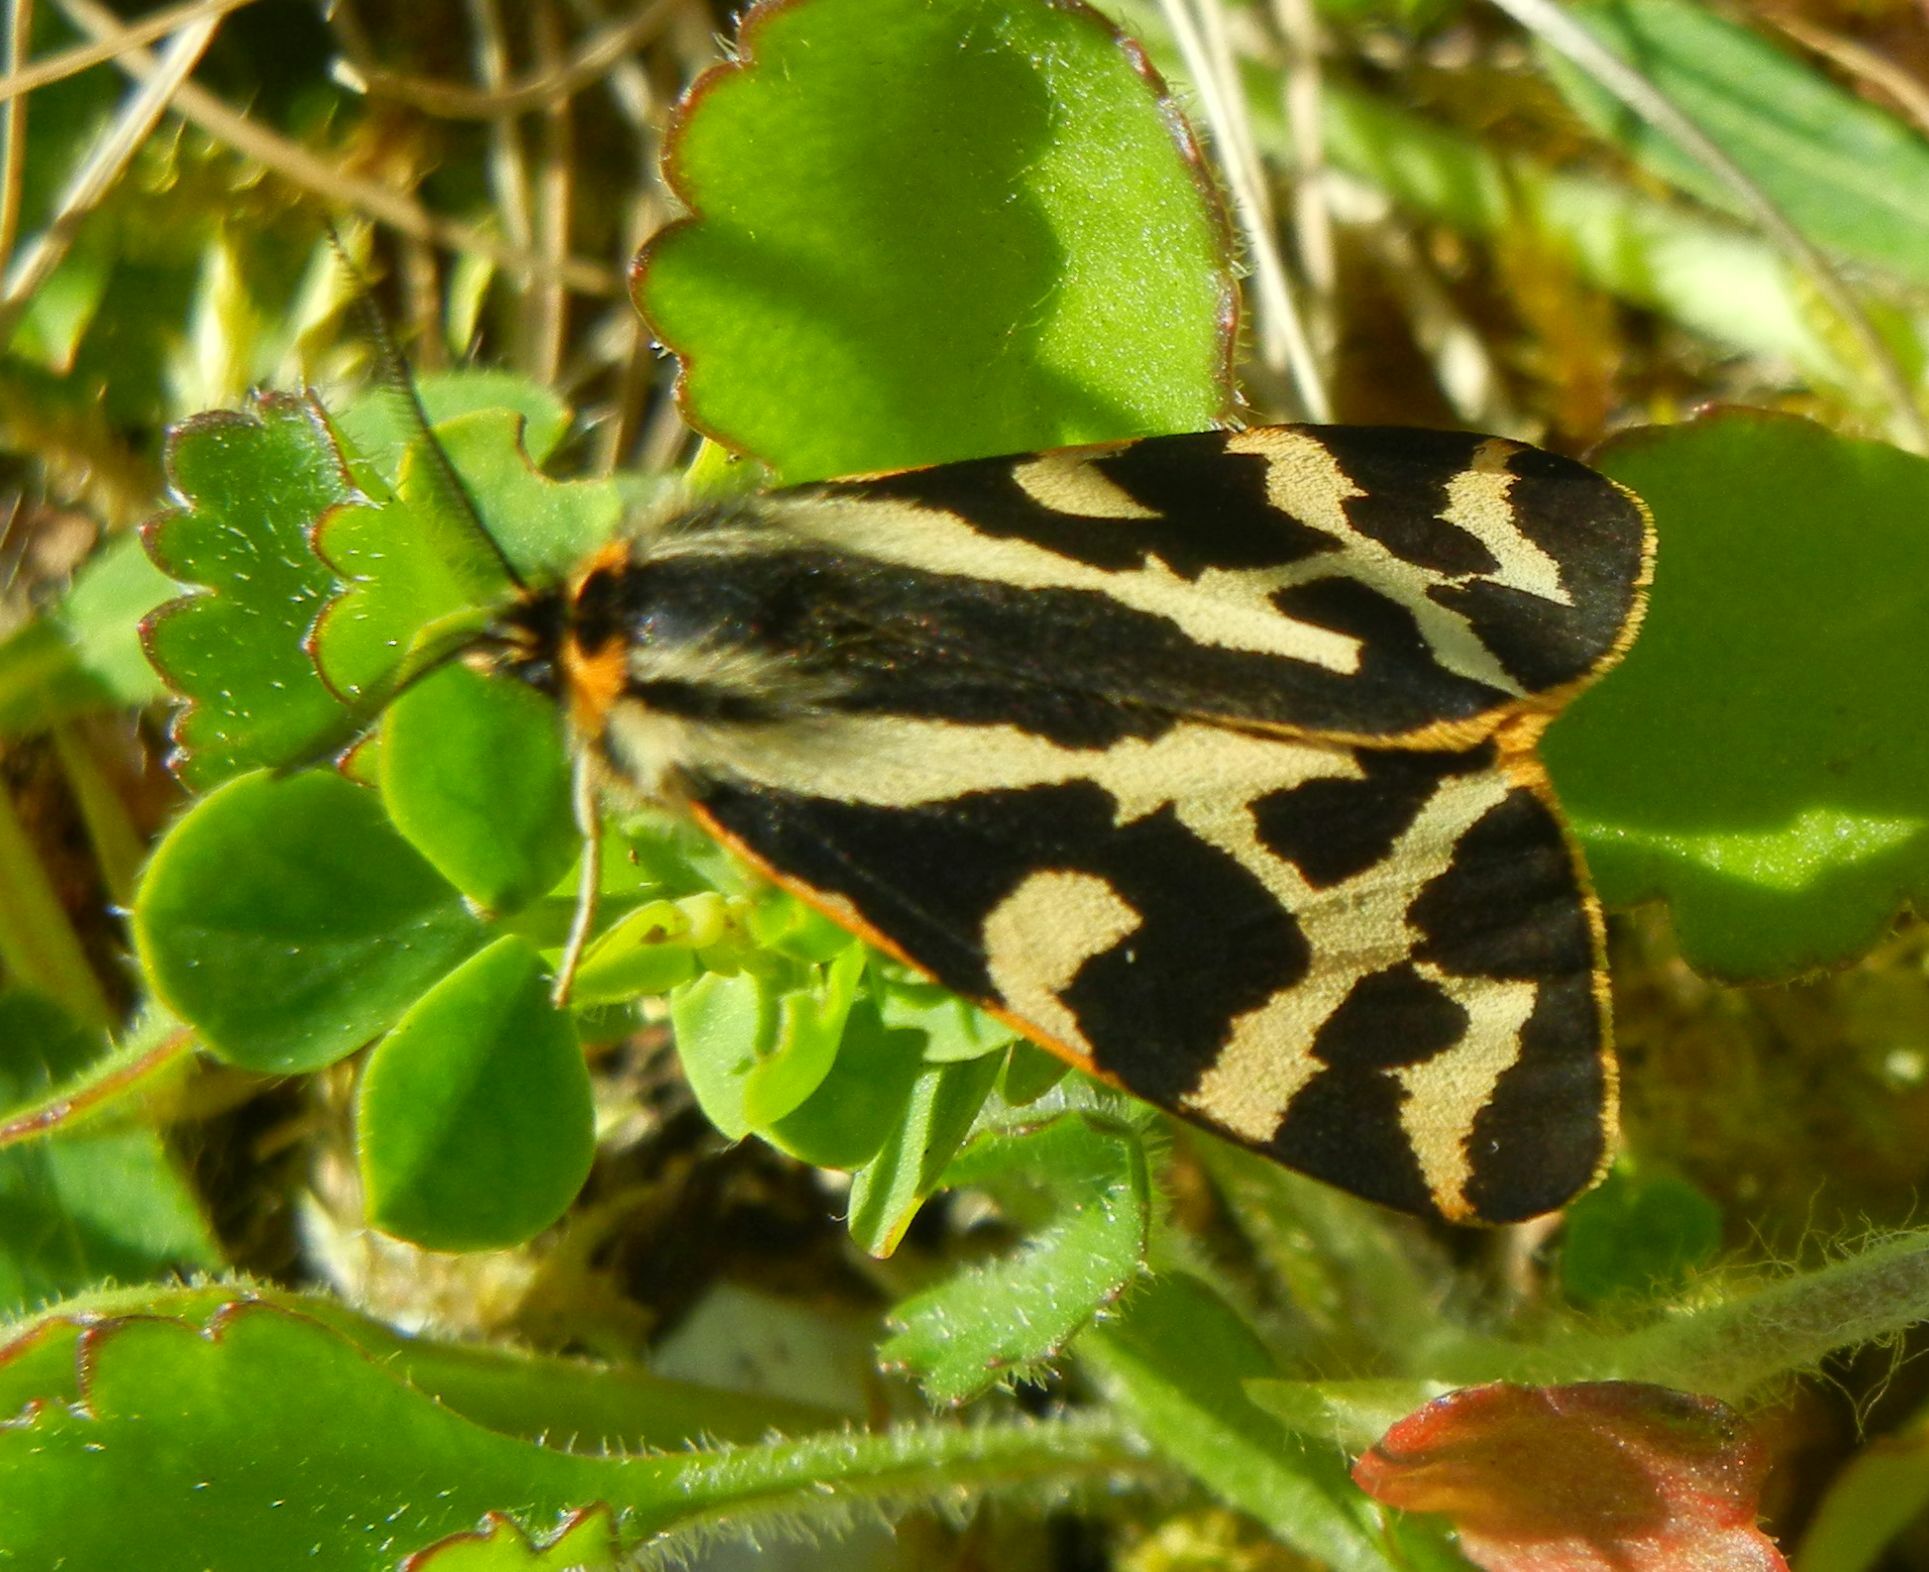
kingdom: Animalia
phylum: Arthropoda
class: Insecta
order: Lepidoptera
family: Erebidae
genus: Parasemia
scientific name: Parasemia plantaginis
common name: Wood tiger
